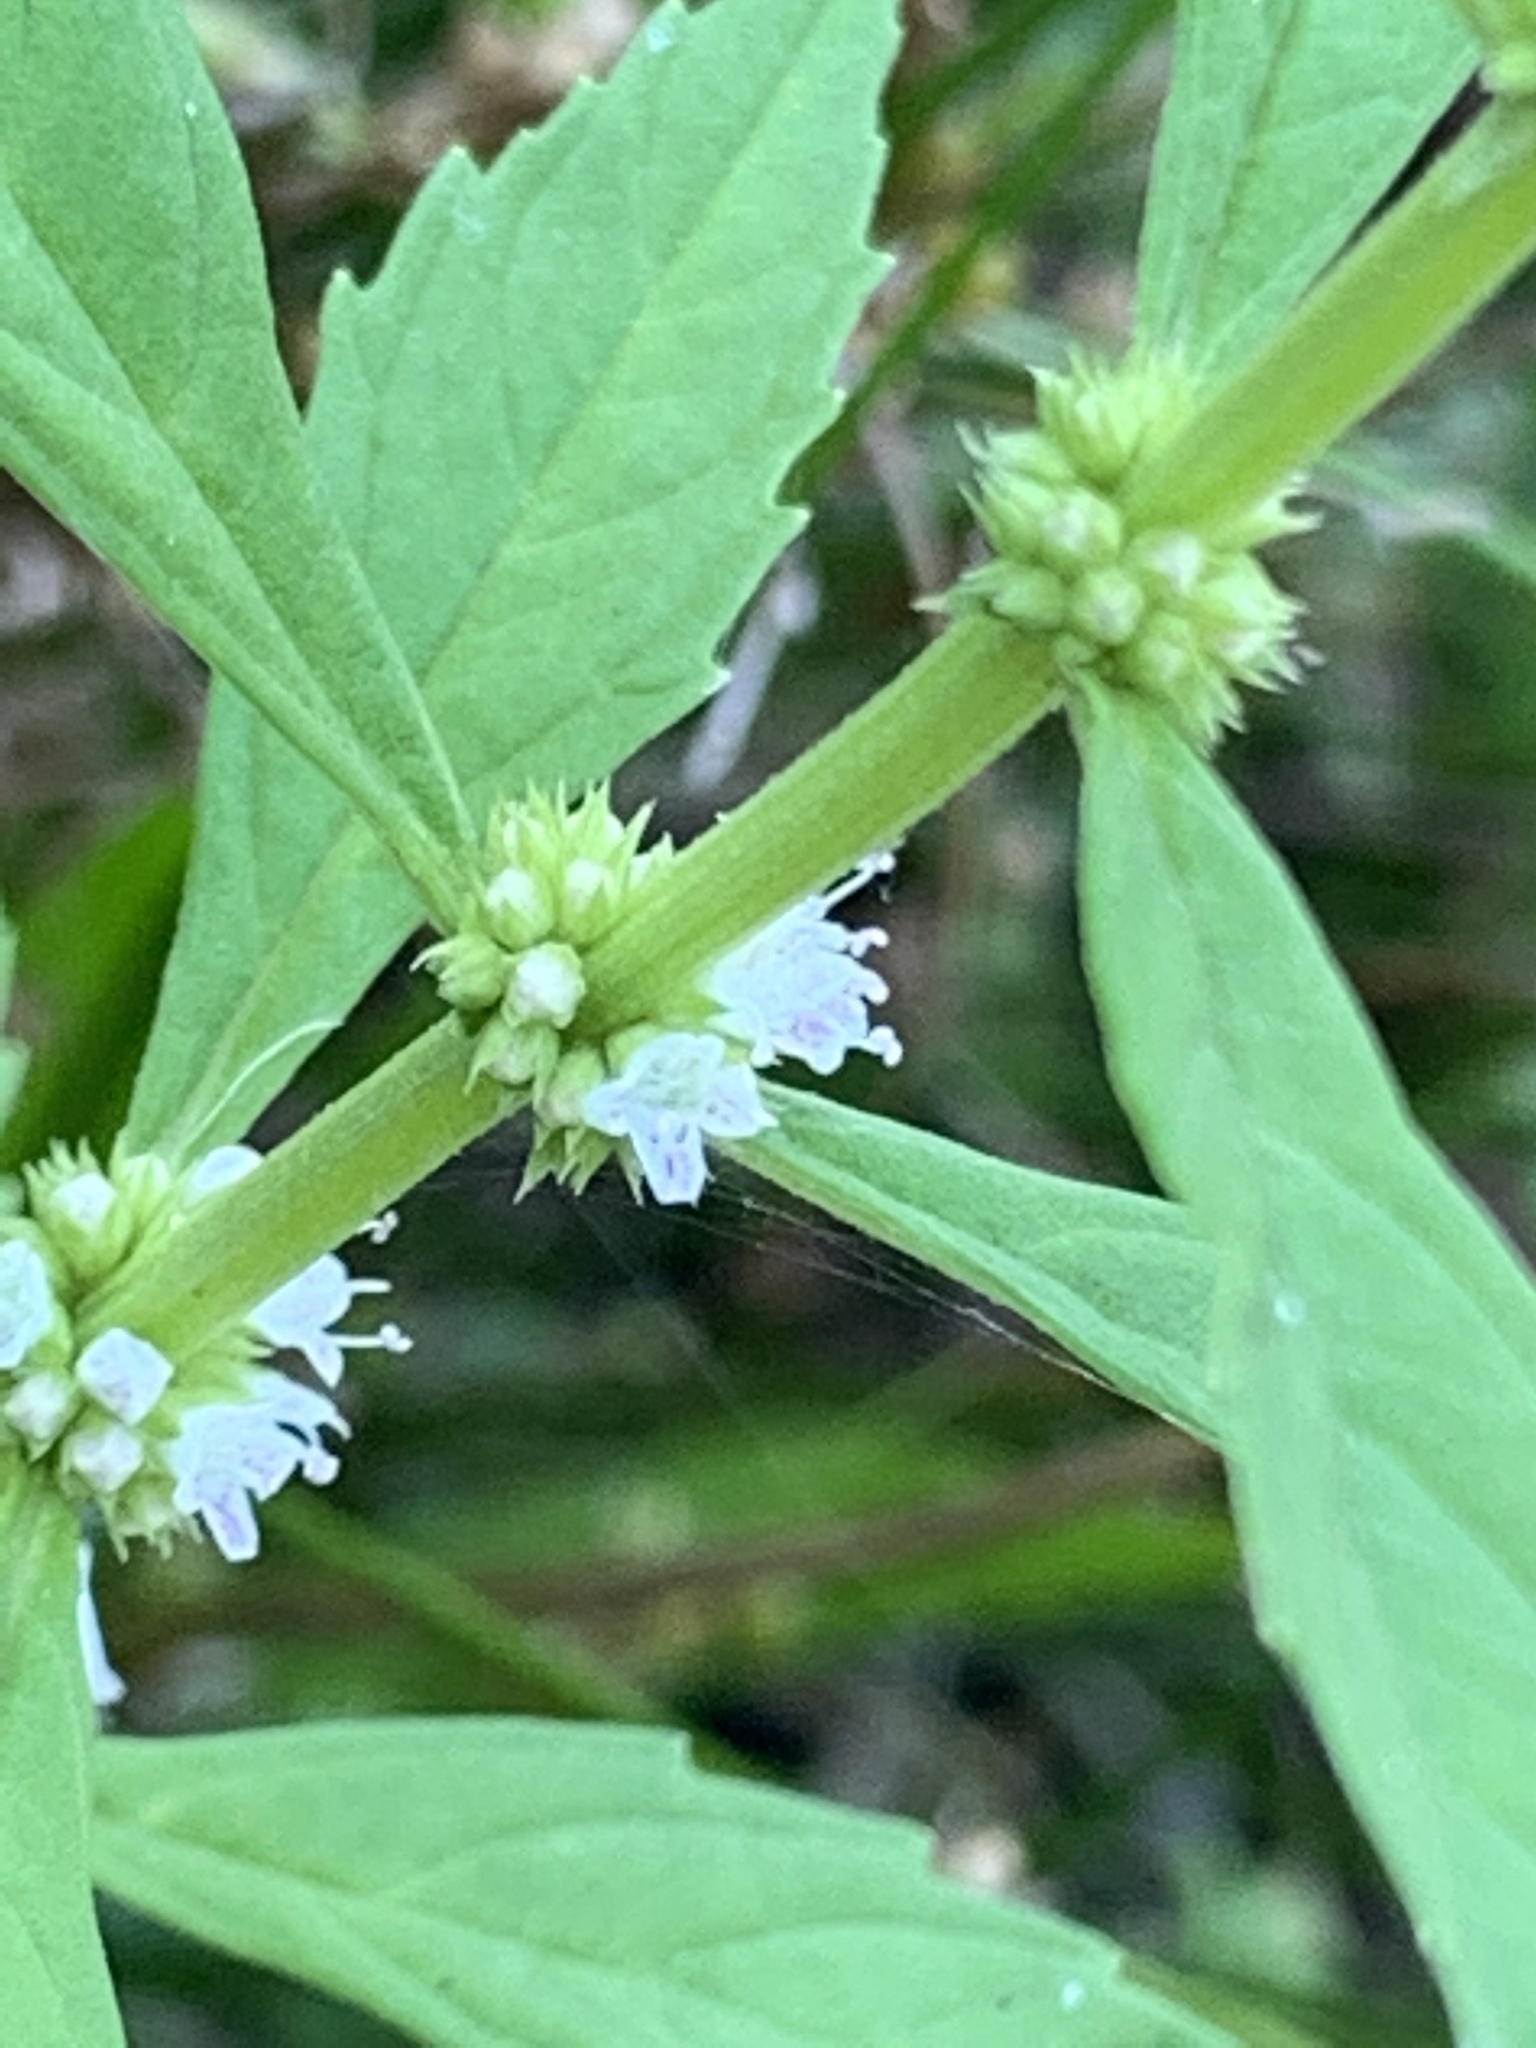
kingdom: Plantae
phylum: Tracheophyta
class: Magnoliopsida
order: Lamiales
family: Lamiaceae
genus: Lycopus
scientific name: Lycopus uniflorus
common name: Northern bugleweed
